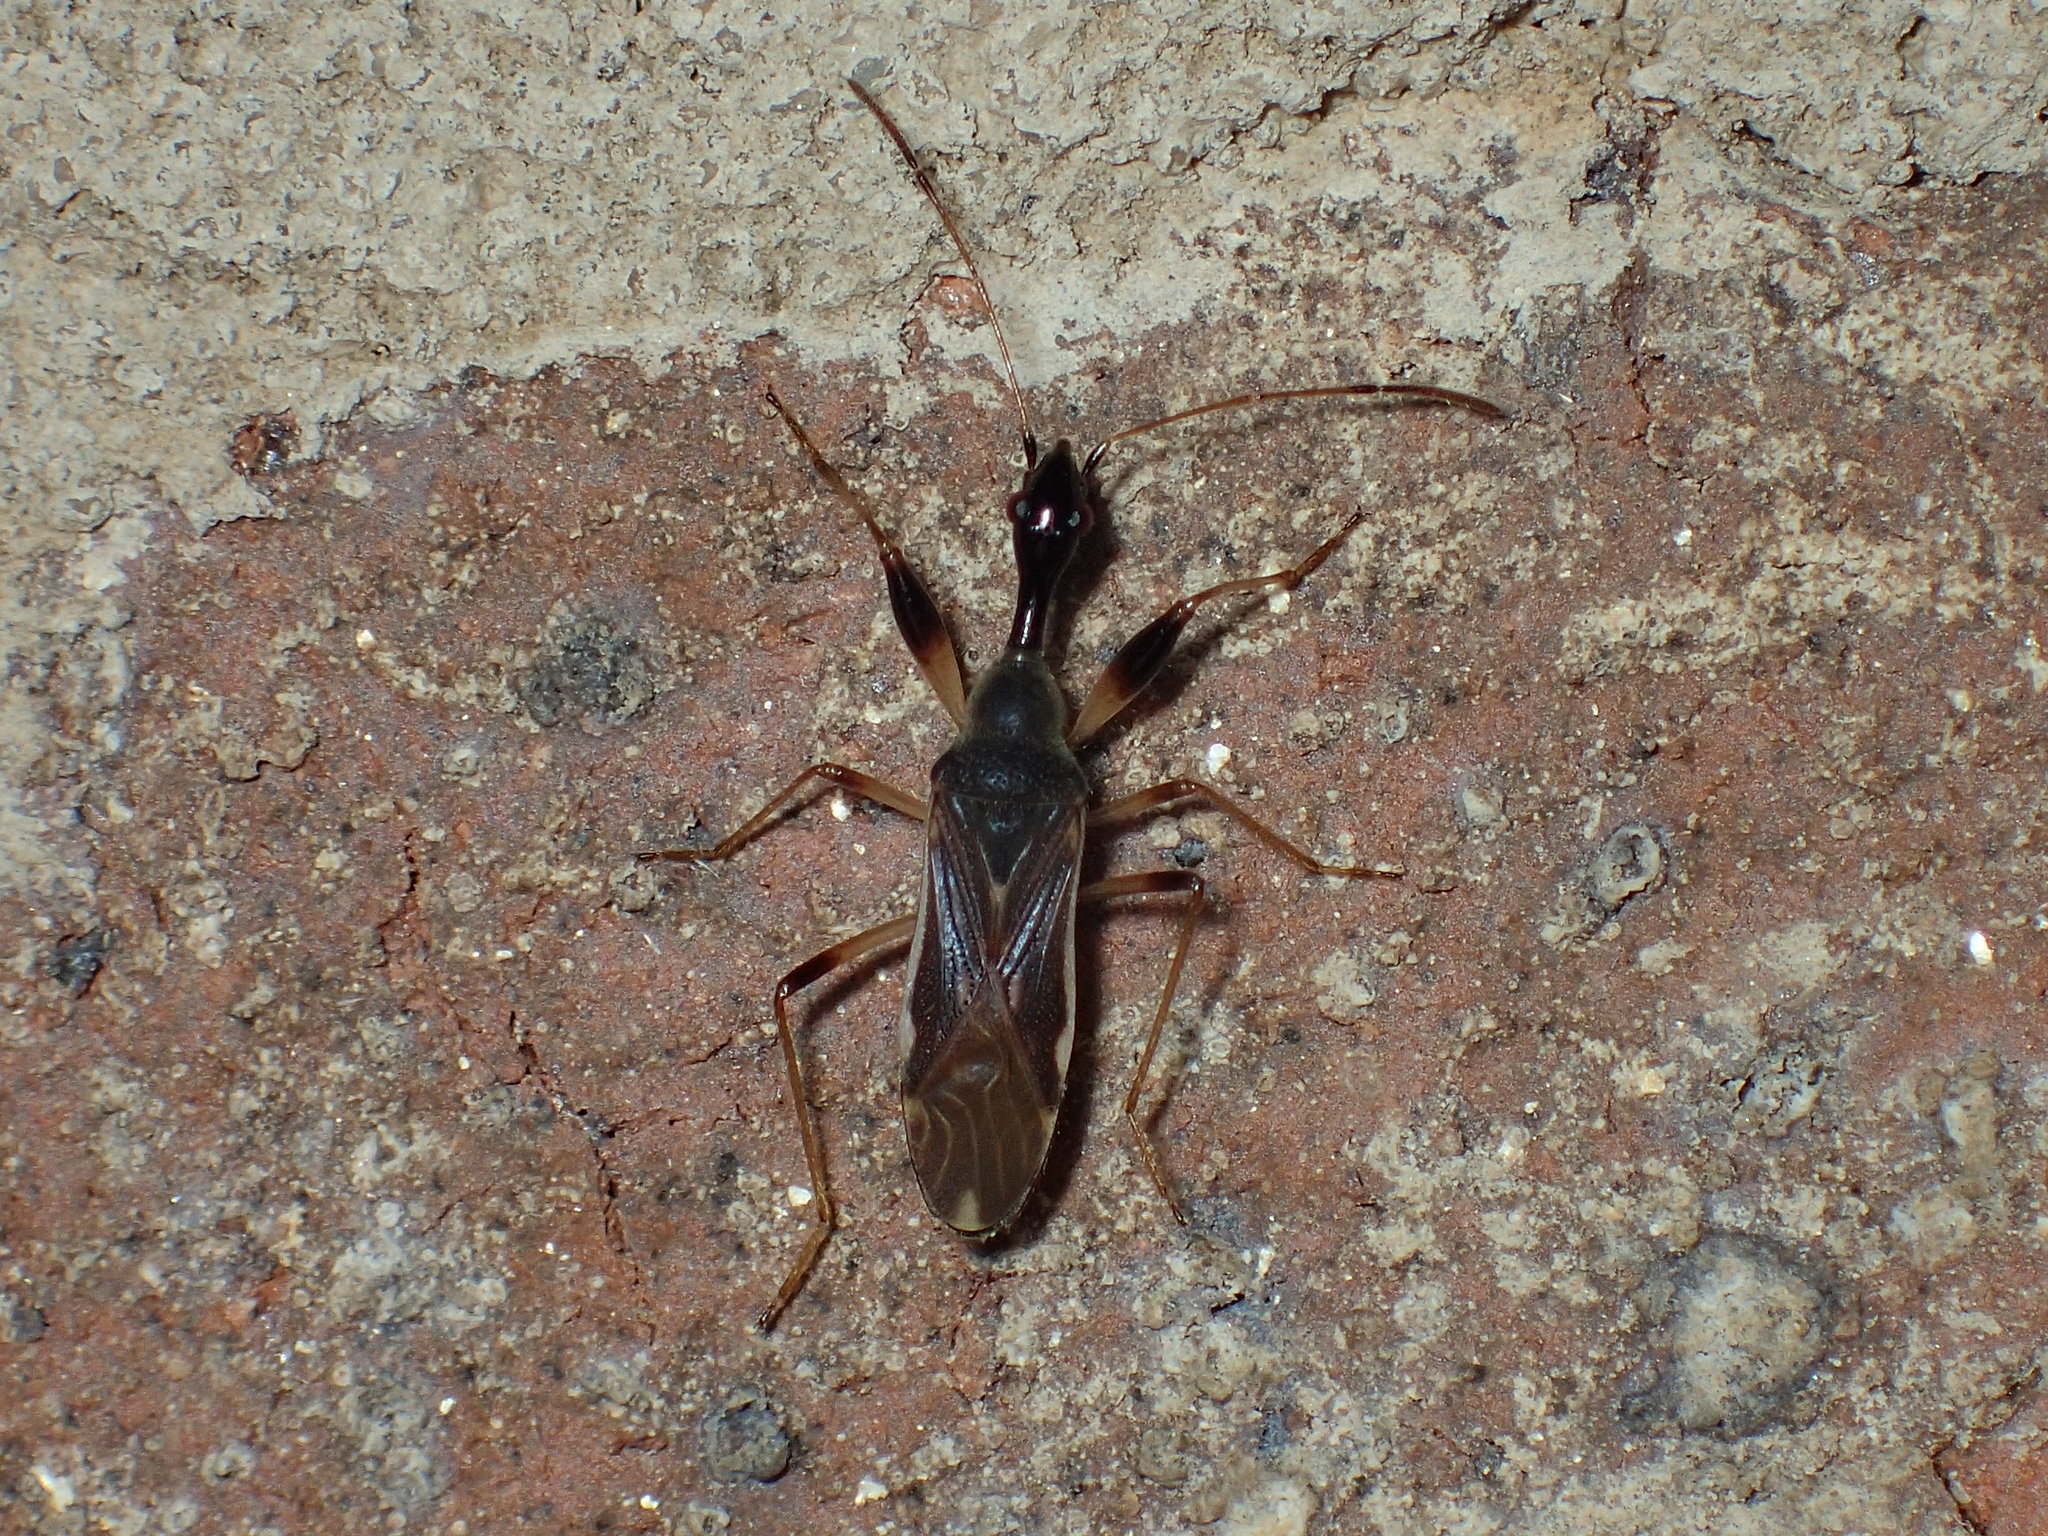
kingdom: Animalia
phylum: Arthropoda
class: Insecta
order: Hemiptera
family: Rhyparochromidae
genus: Myodocha
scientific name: Myodocha serripes
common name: Long-necked seed bug
